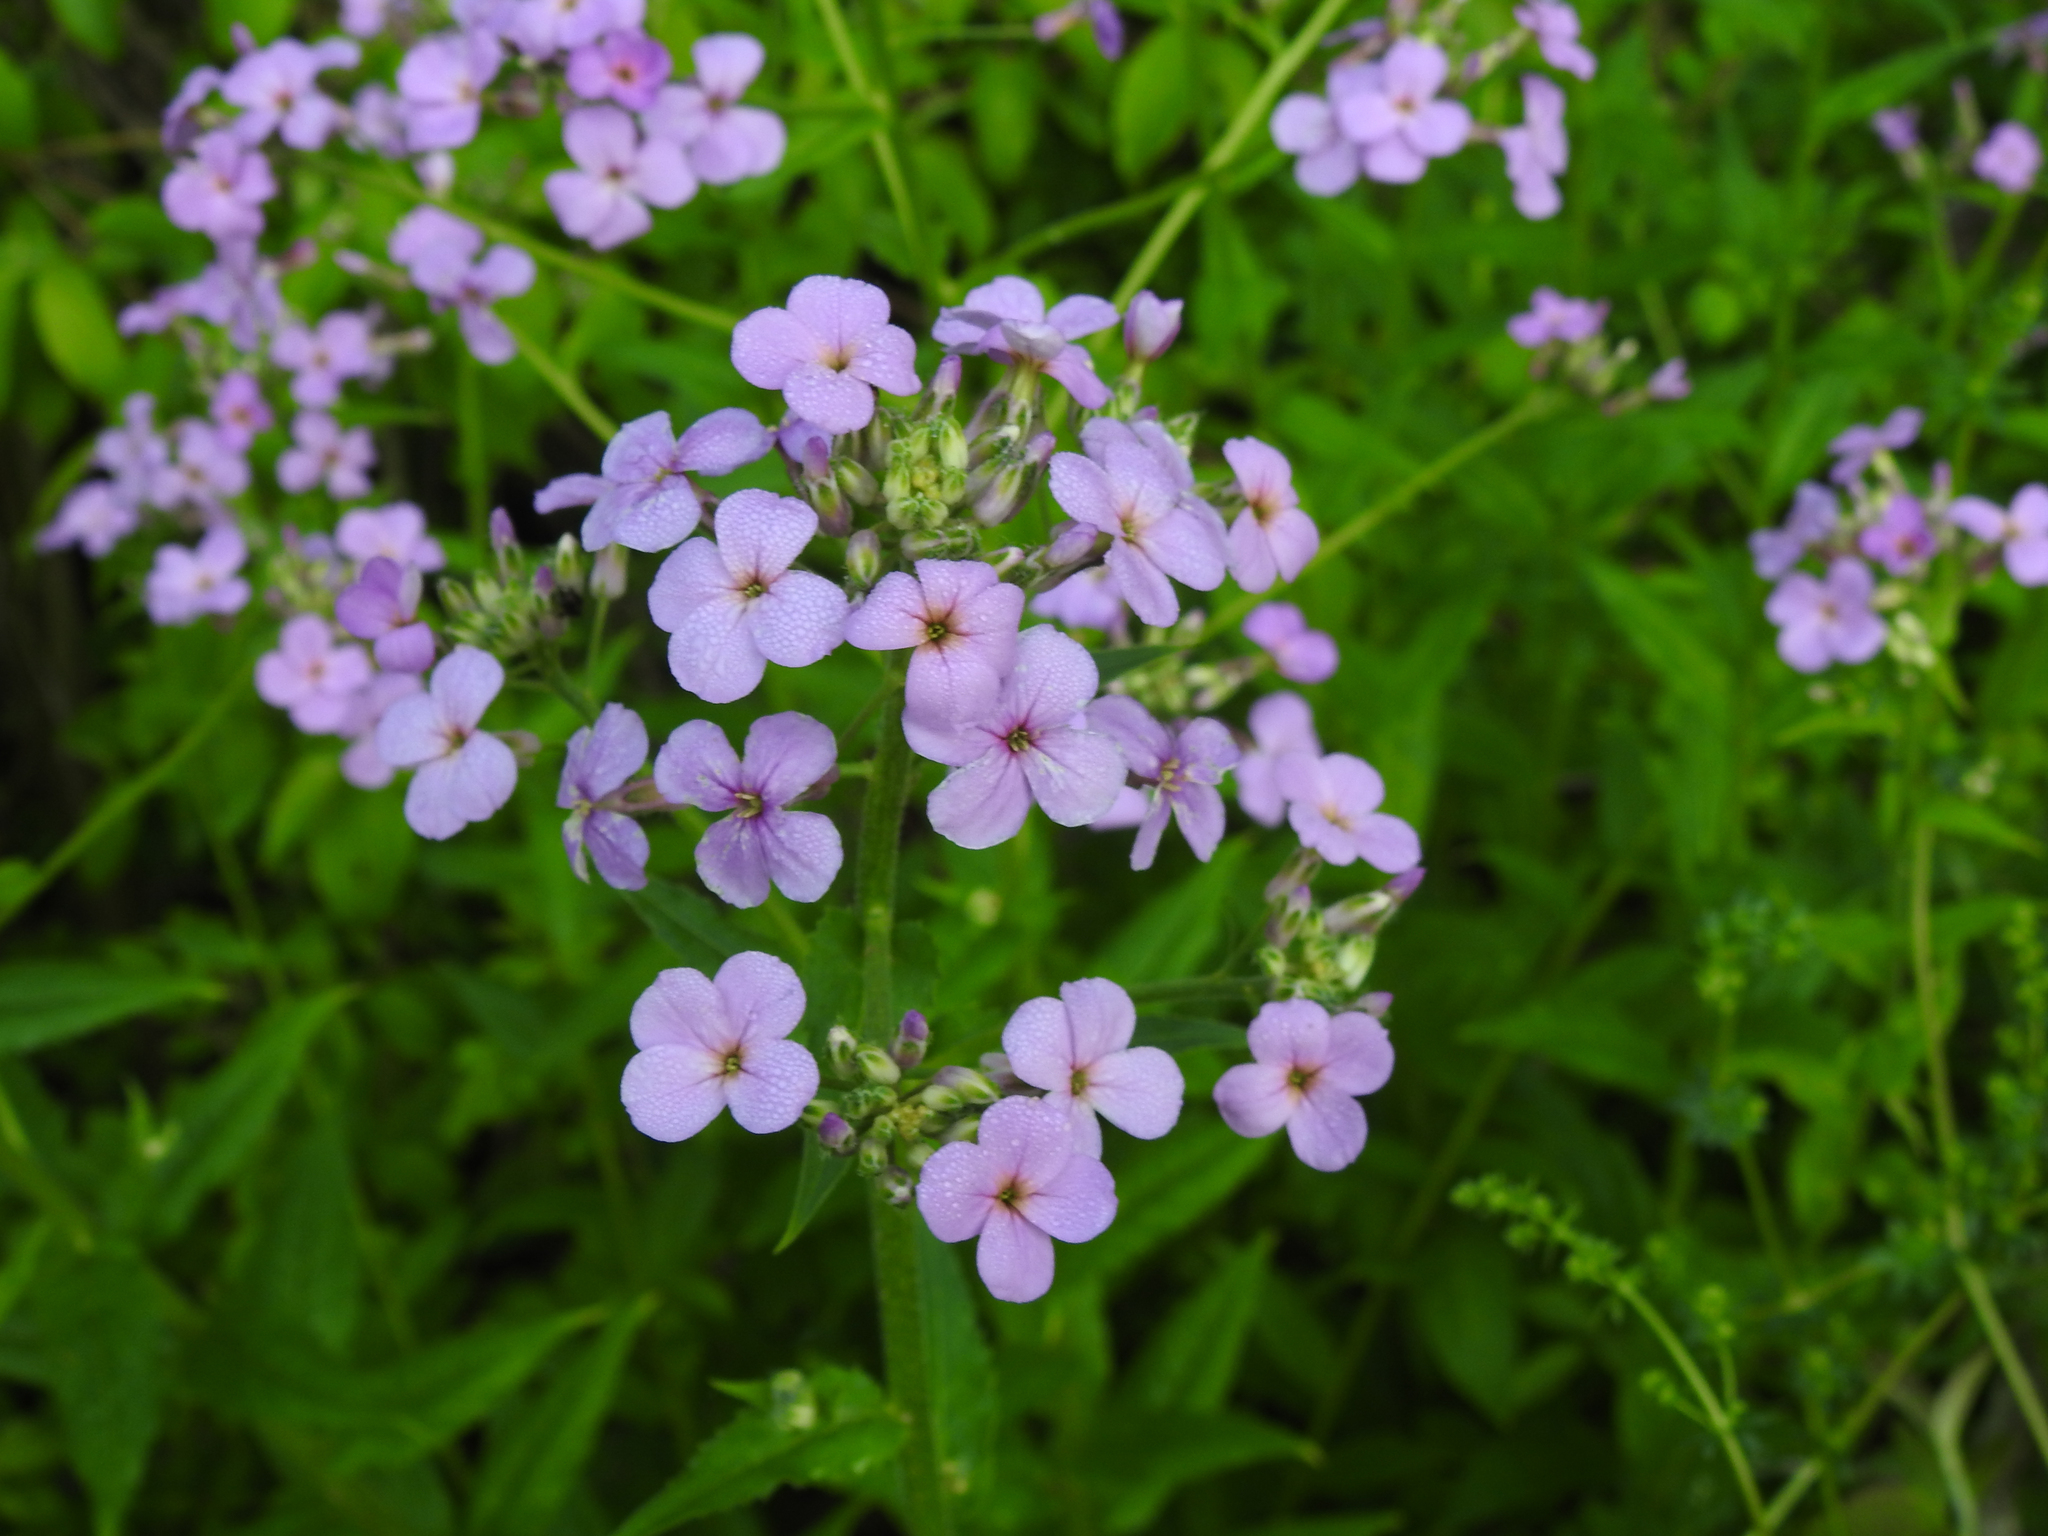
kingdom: Plantae
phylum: Tracheophyta
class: Magnoliopsida
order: Brassicales
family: Brassicaceae
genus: Hesperis
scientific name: Hesperis matronalis
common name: Dame's-violet
